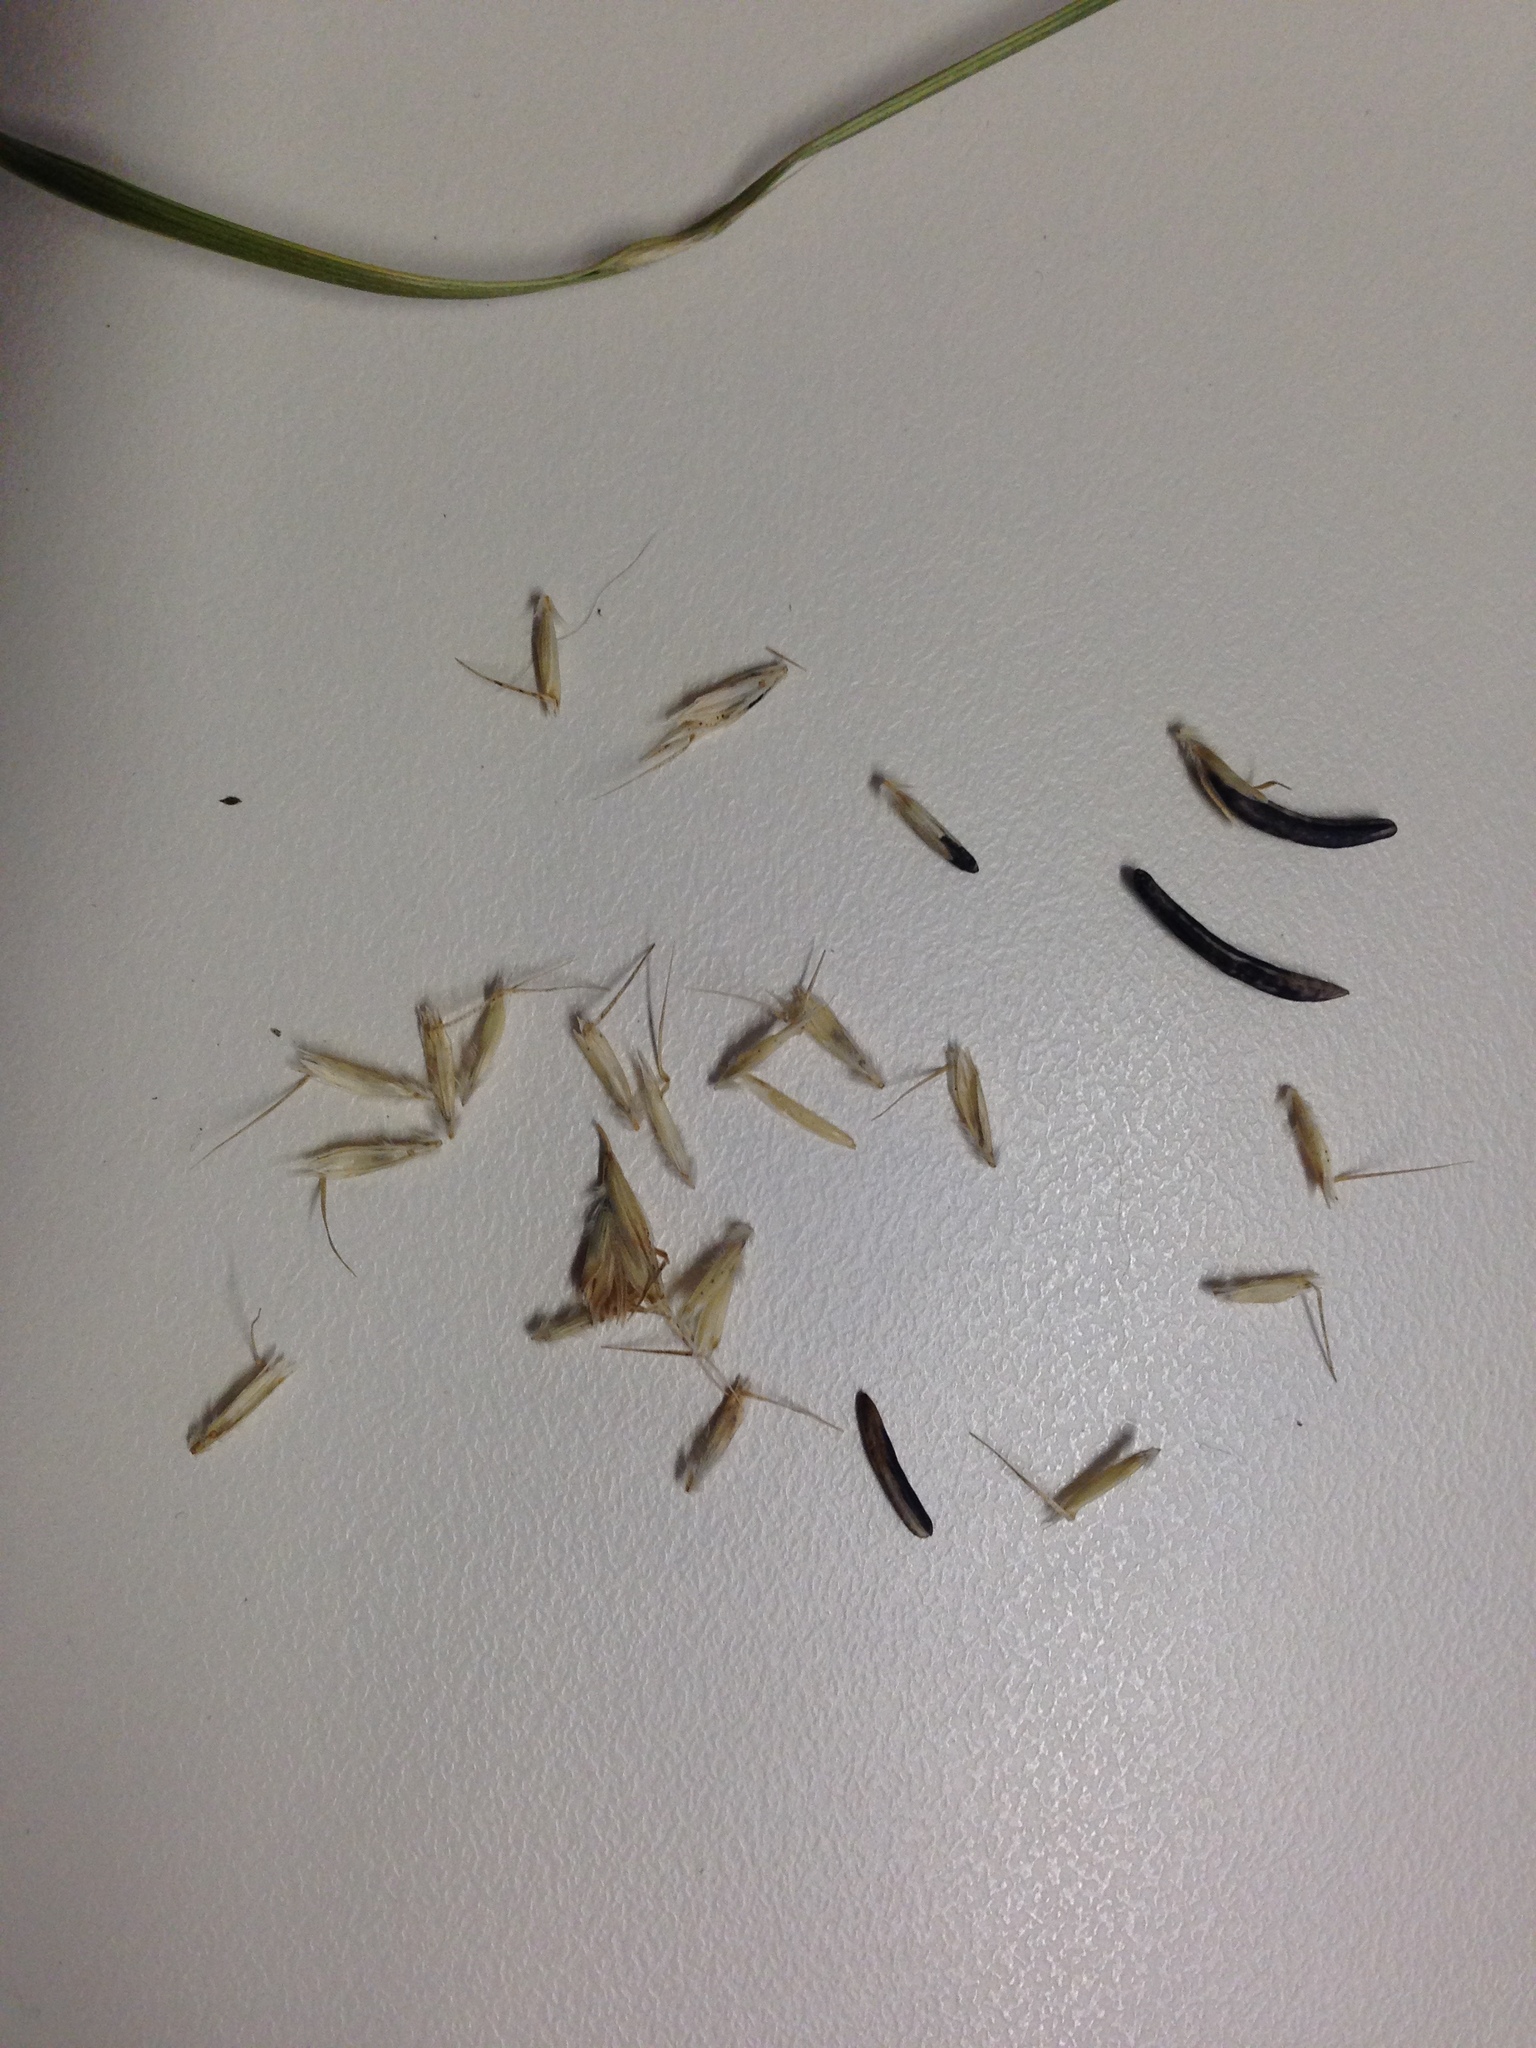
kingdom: Fungi
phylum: Ascomycota
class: Sordariomycetes
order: Hypocreales
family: Clavicipitaceae
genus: Claviceps
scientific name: Claviceps purpurea
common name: Rye ergot
